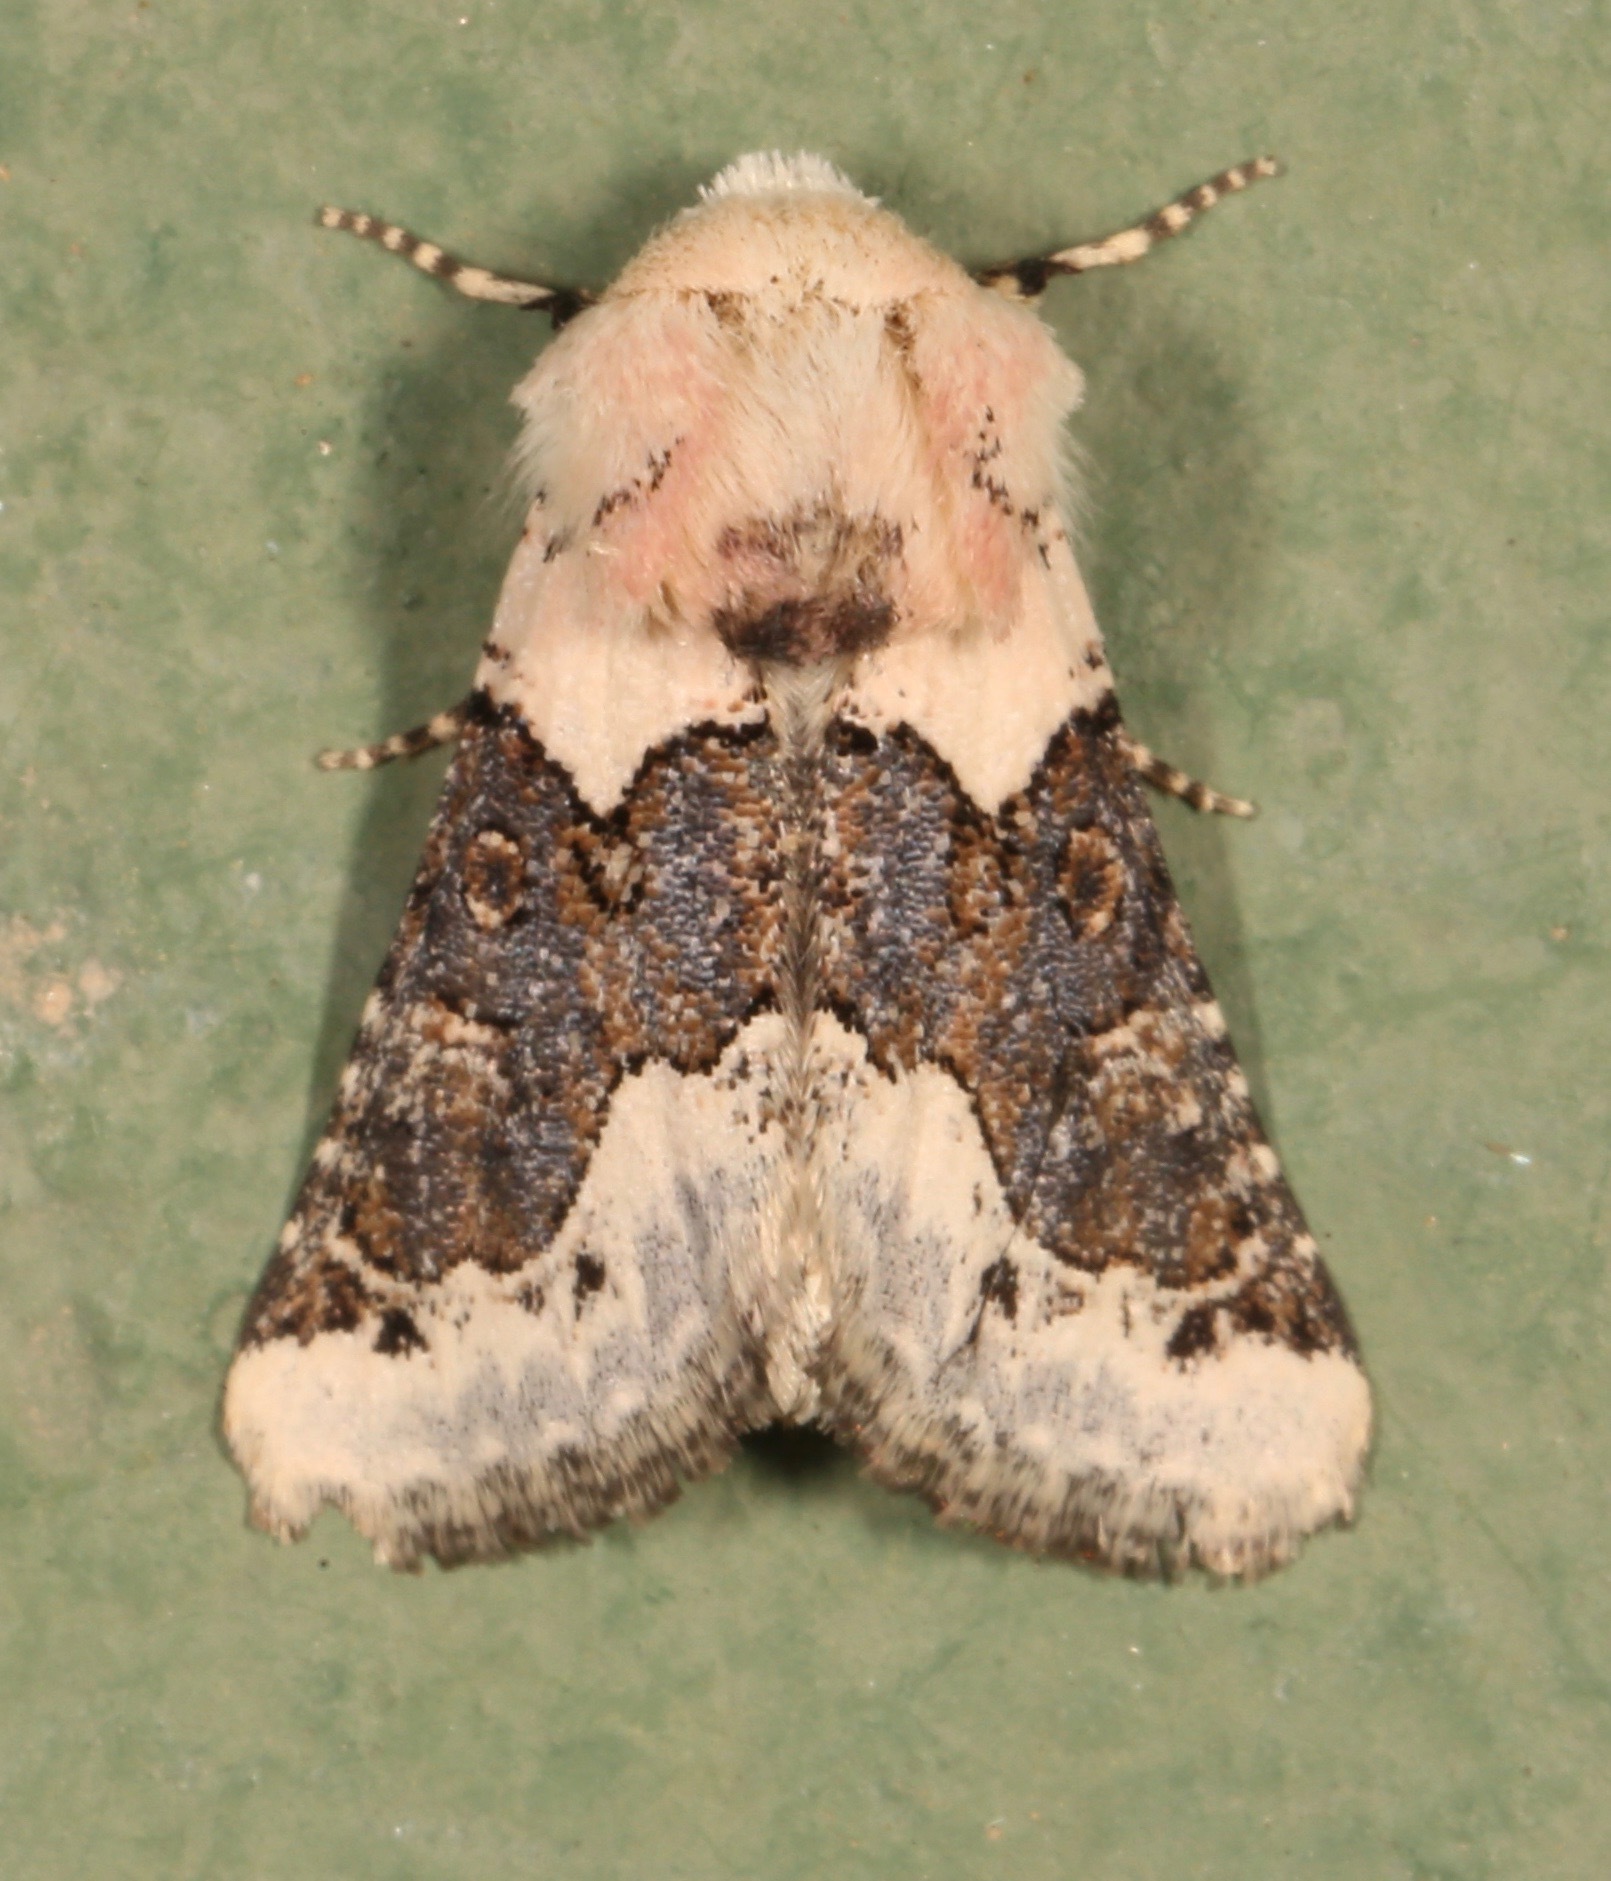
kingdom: Animalia
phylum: Arthropoda
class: Insecta
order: Lepidoptera
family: Noctuidae
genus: Triocnemis
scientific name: Triocnemis saporis
